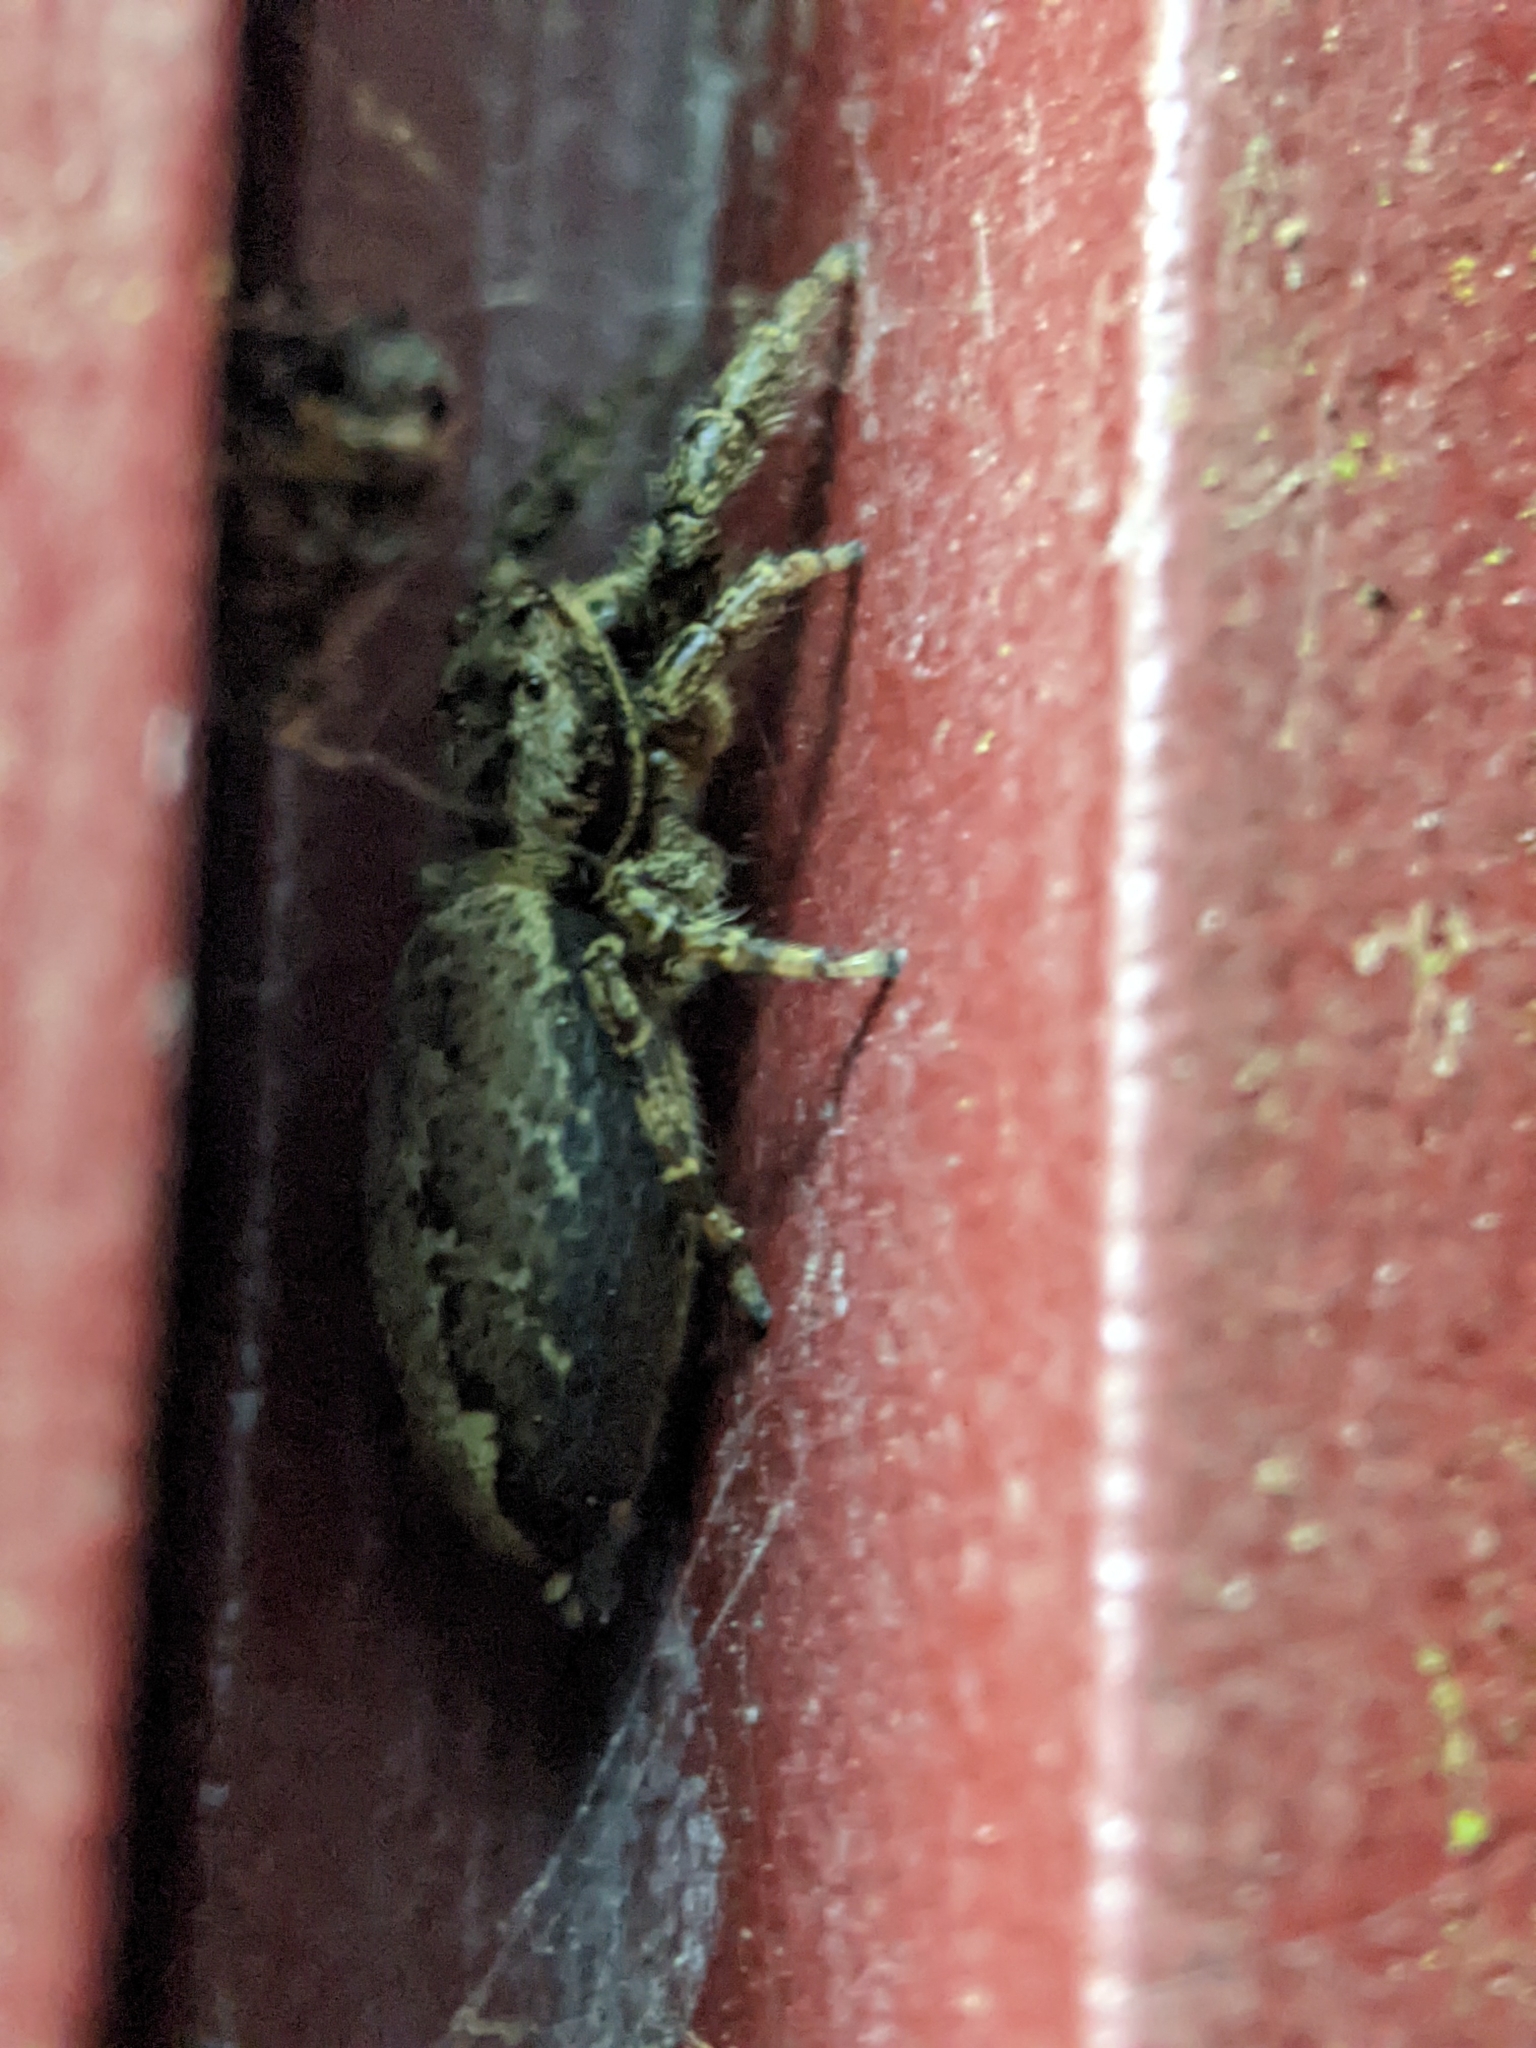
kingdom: Animalia
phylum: Arthropoda
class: Arachnida
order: Araneae
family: Salticidae
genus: Marpissa
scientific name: Marpissa muscosa
